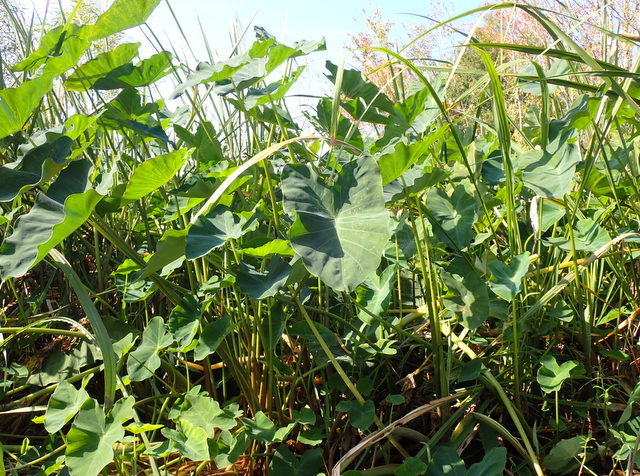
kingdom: Plantae
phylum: Tracheophyta
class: Liliopsida
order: Alismatales
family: Araceae
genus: Colocasia
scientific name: Colocasia esculenta
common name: Taro
